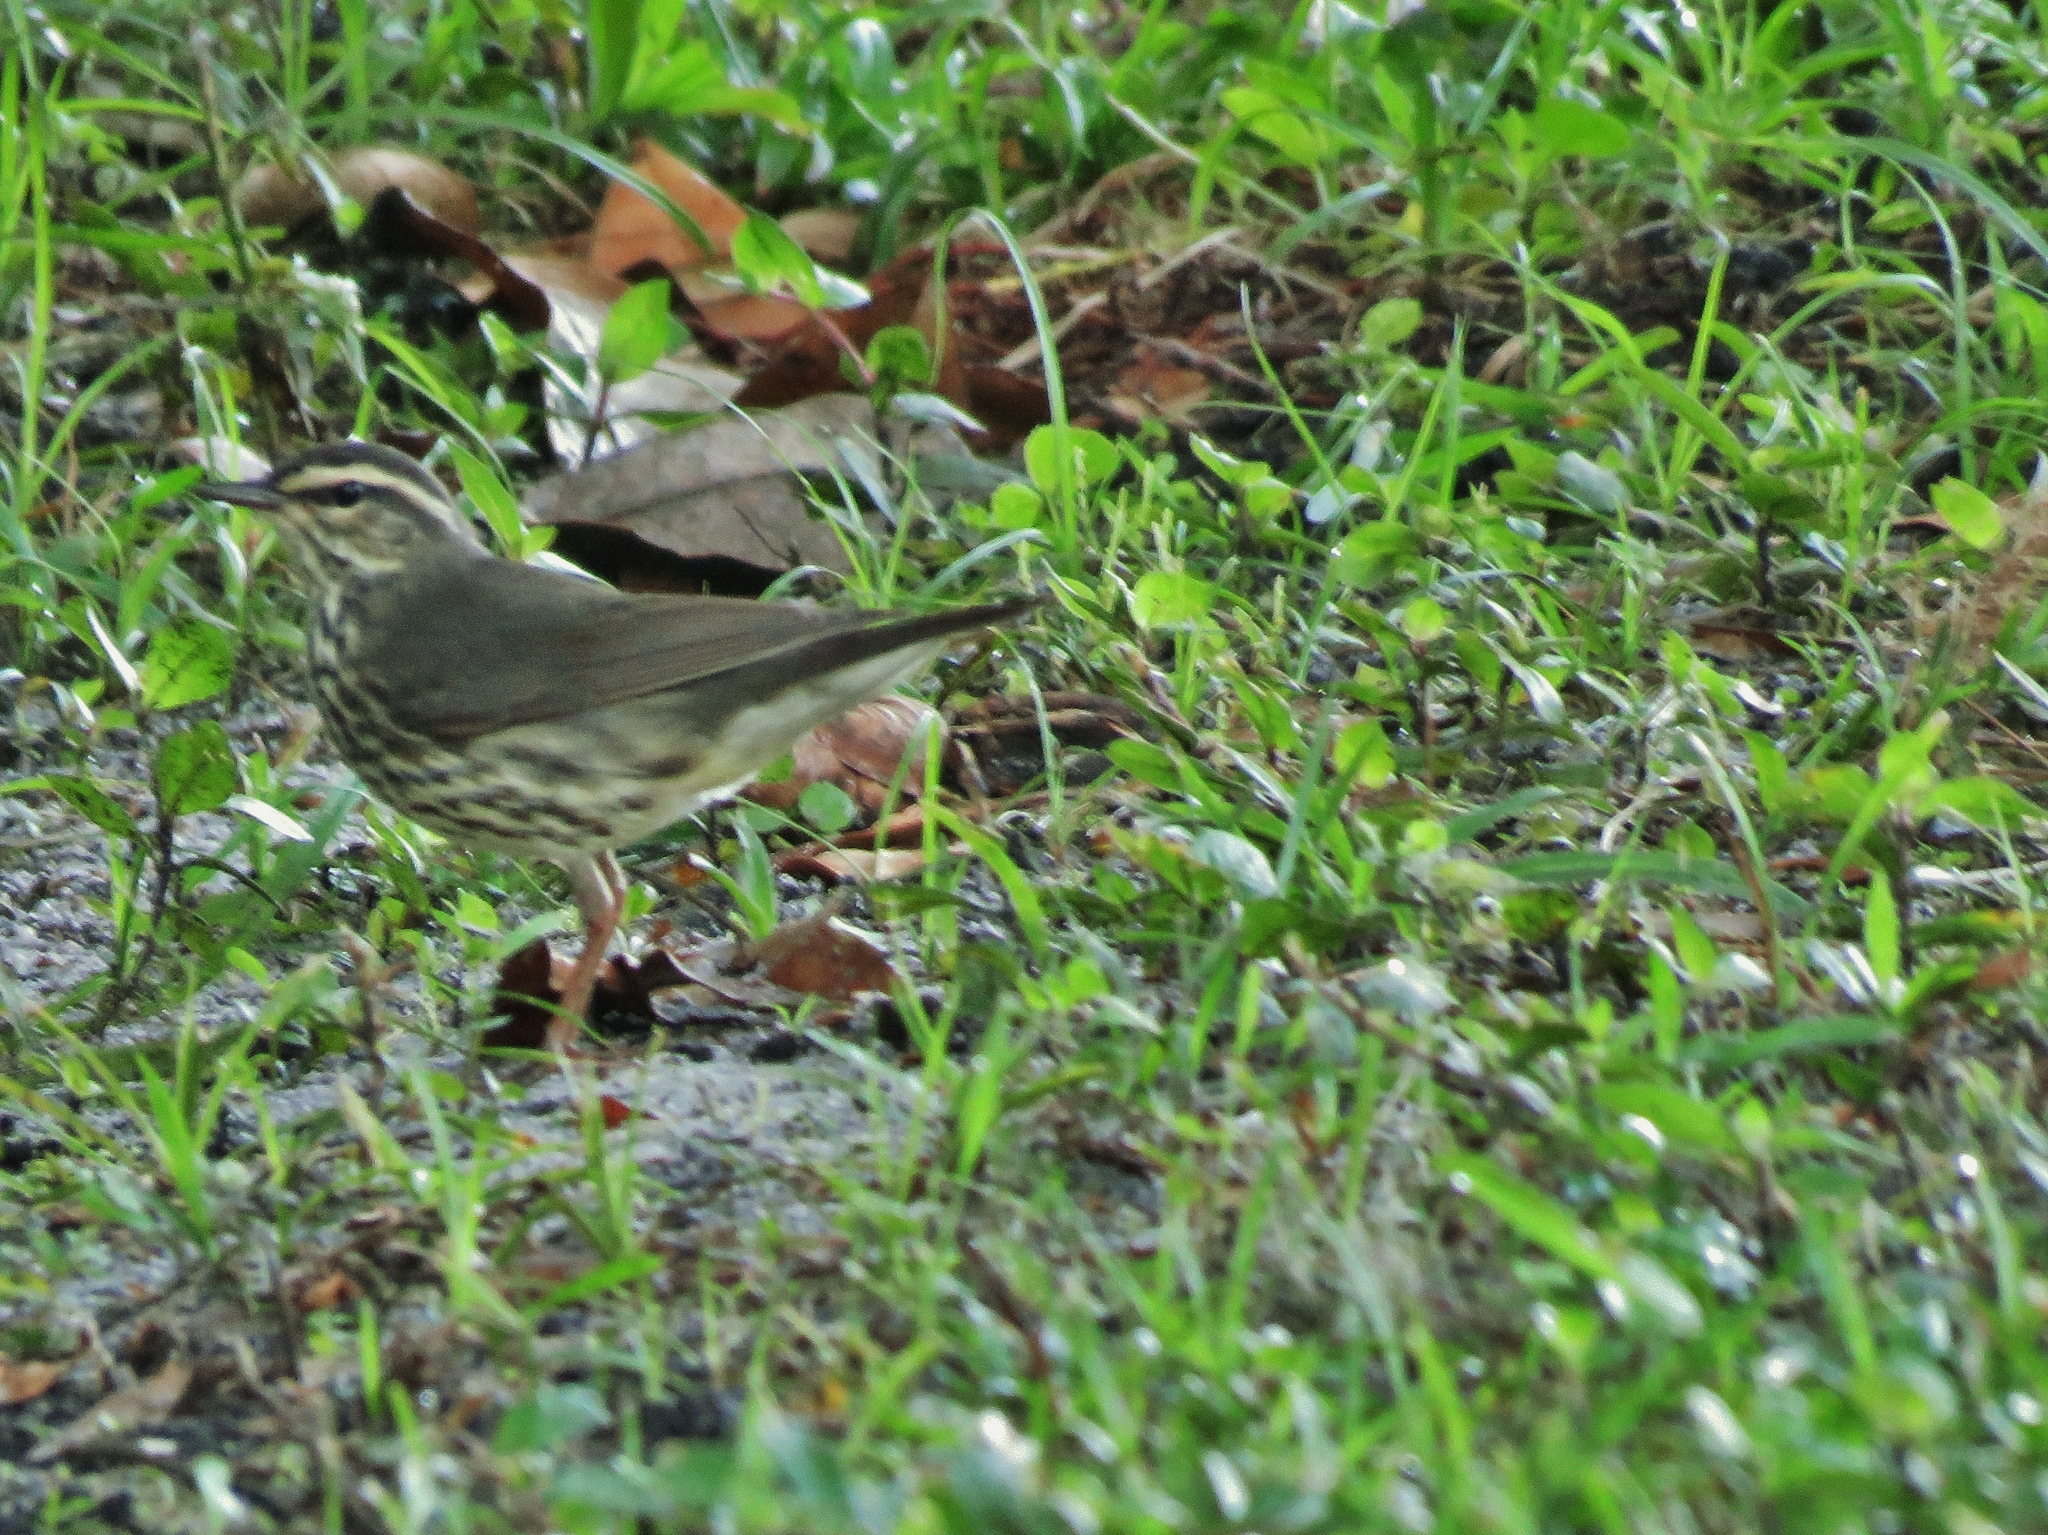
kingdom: Animalia
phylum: Chordata
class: Aves
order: Passeriformes
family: Parulidae
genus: Parkesia
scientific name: Parkesia noveboracensis
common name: Northern waterthrush
